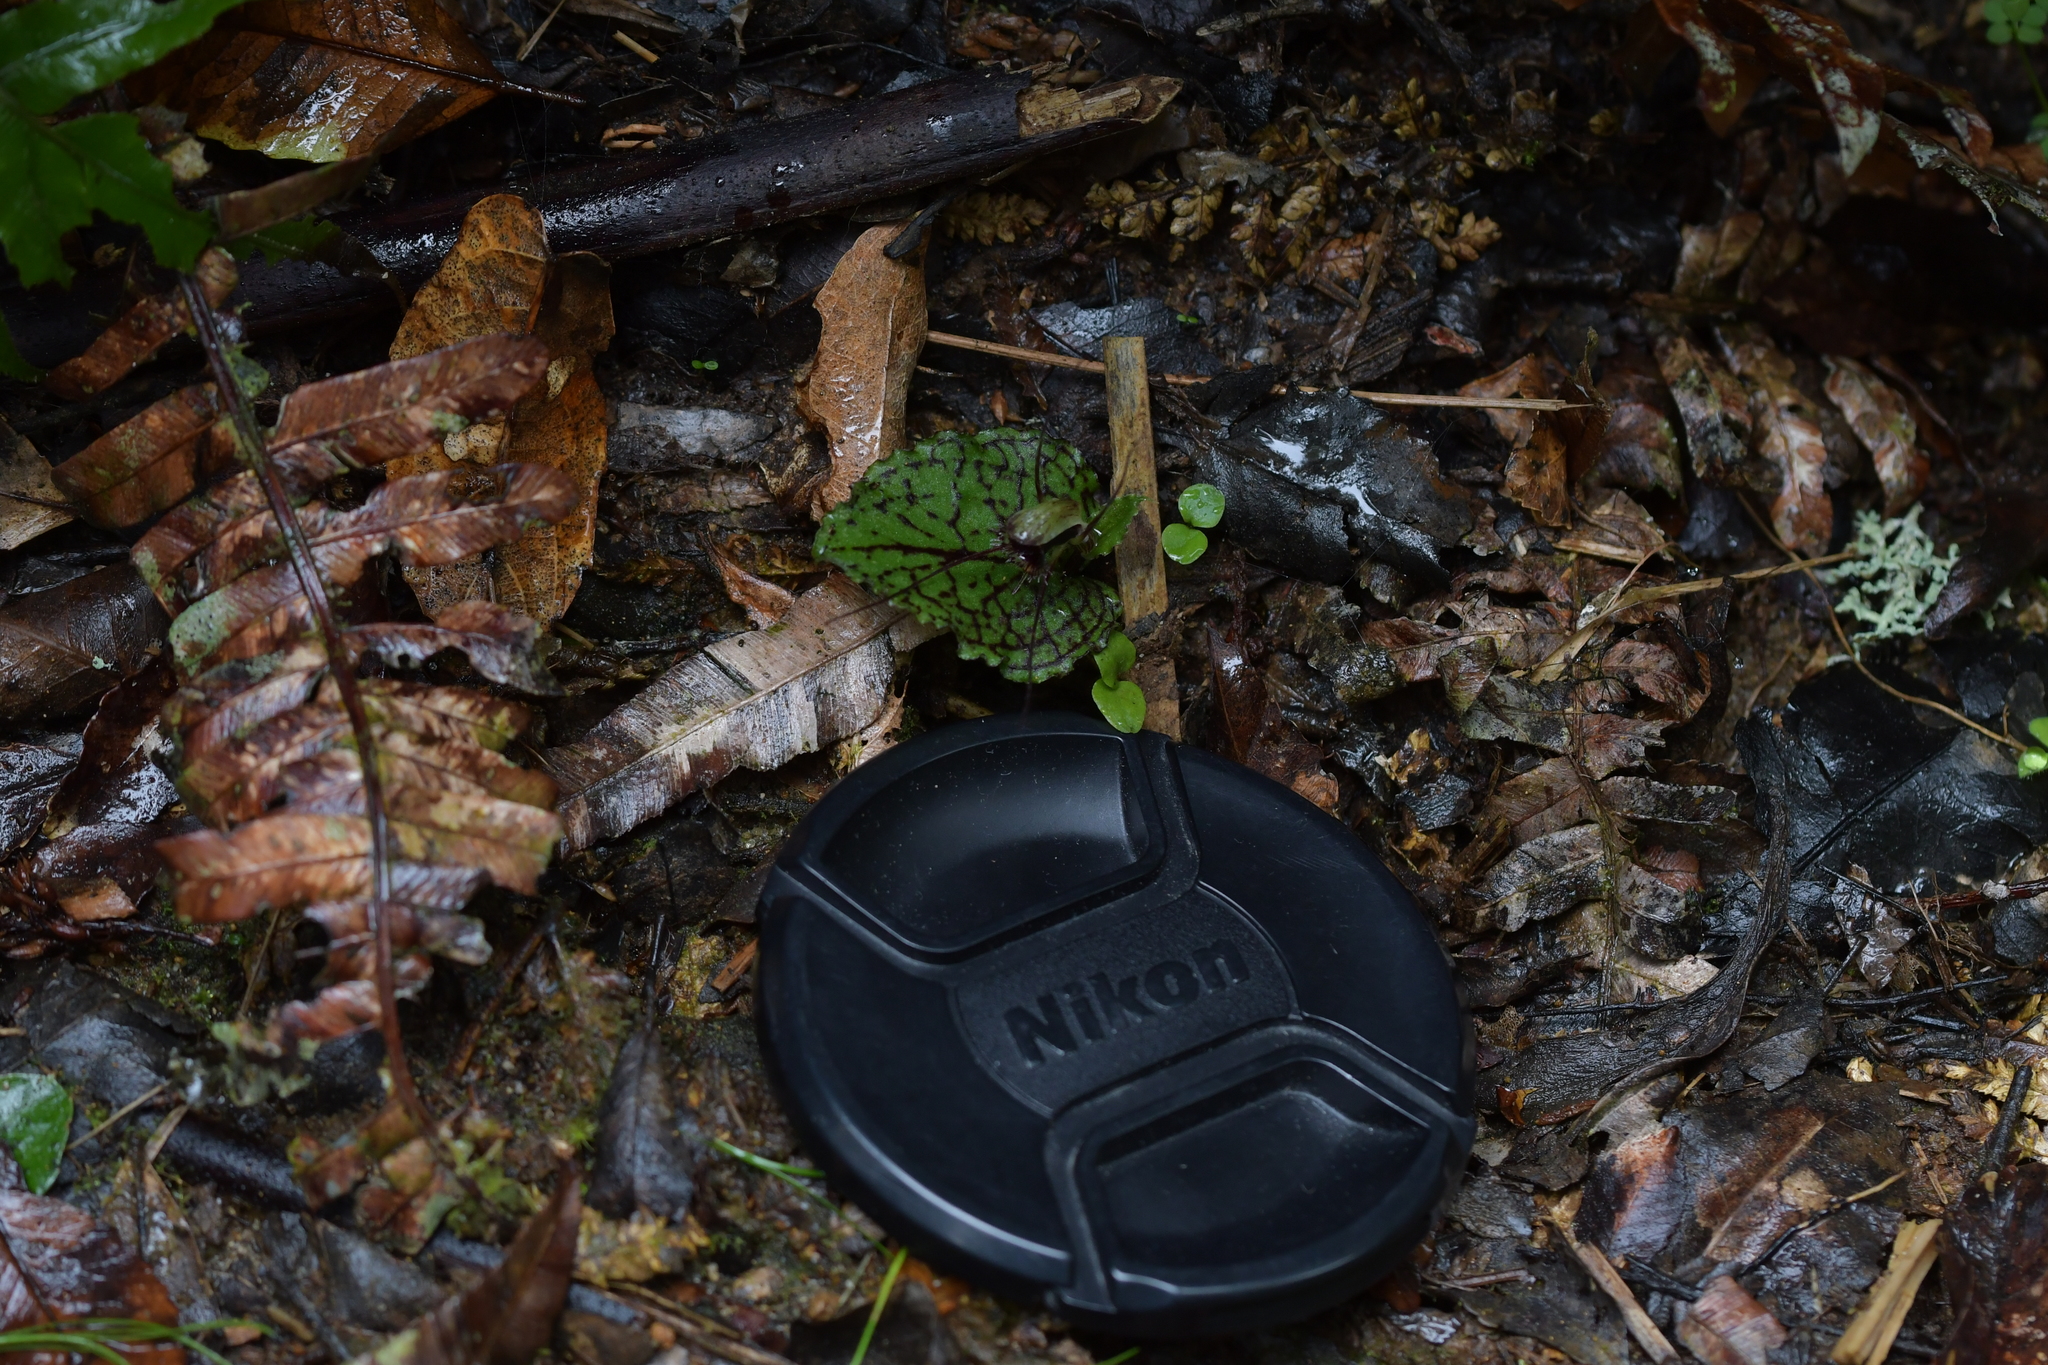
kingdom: Plantae
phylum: Tracheophyta
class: Liliopsida
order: Asparagales
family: Orchidaceae
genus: Corybas
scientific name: Corybas oblongus
